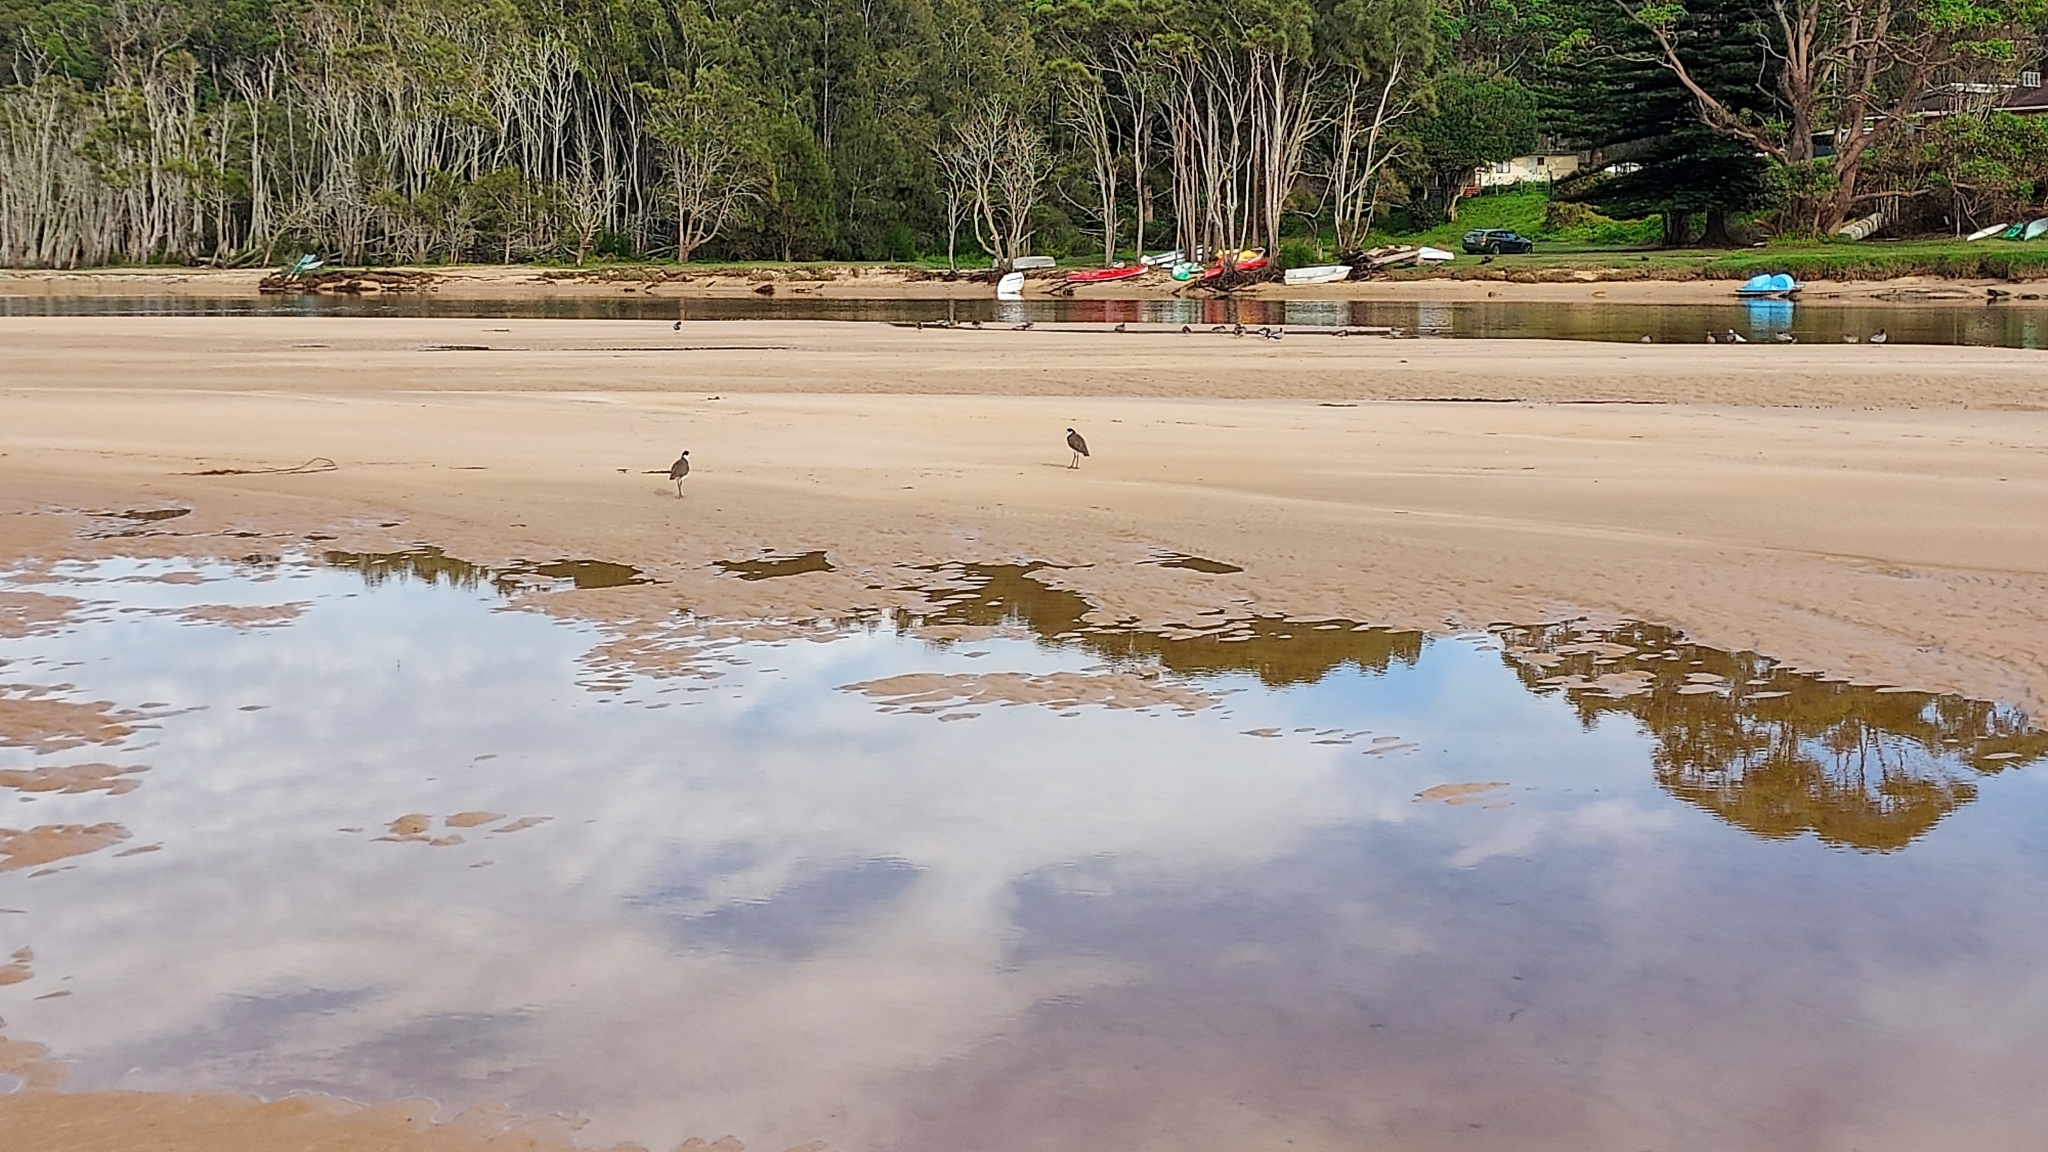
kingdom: Animalia
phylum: Chordata
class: Aves
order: Charadriiformes
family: Charadriidae
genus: Vanellus
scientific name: Vanellus miles
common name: Masked lapwing
